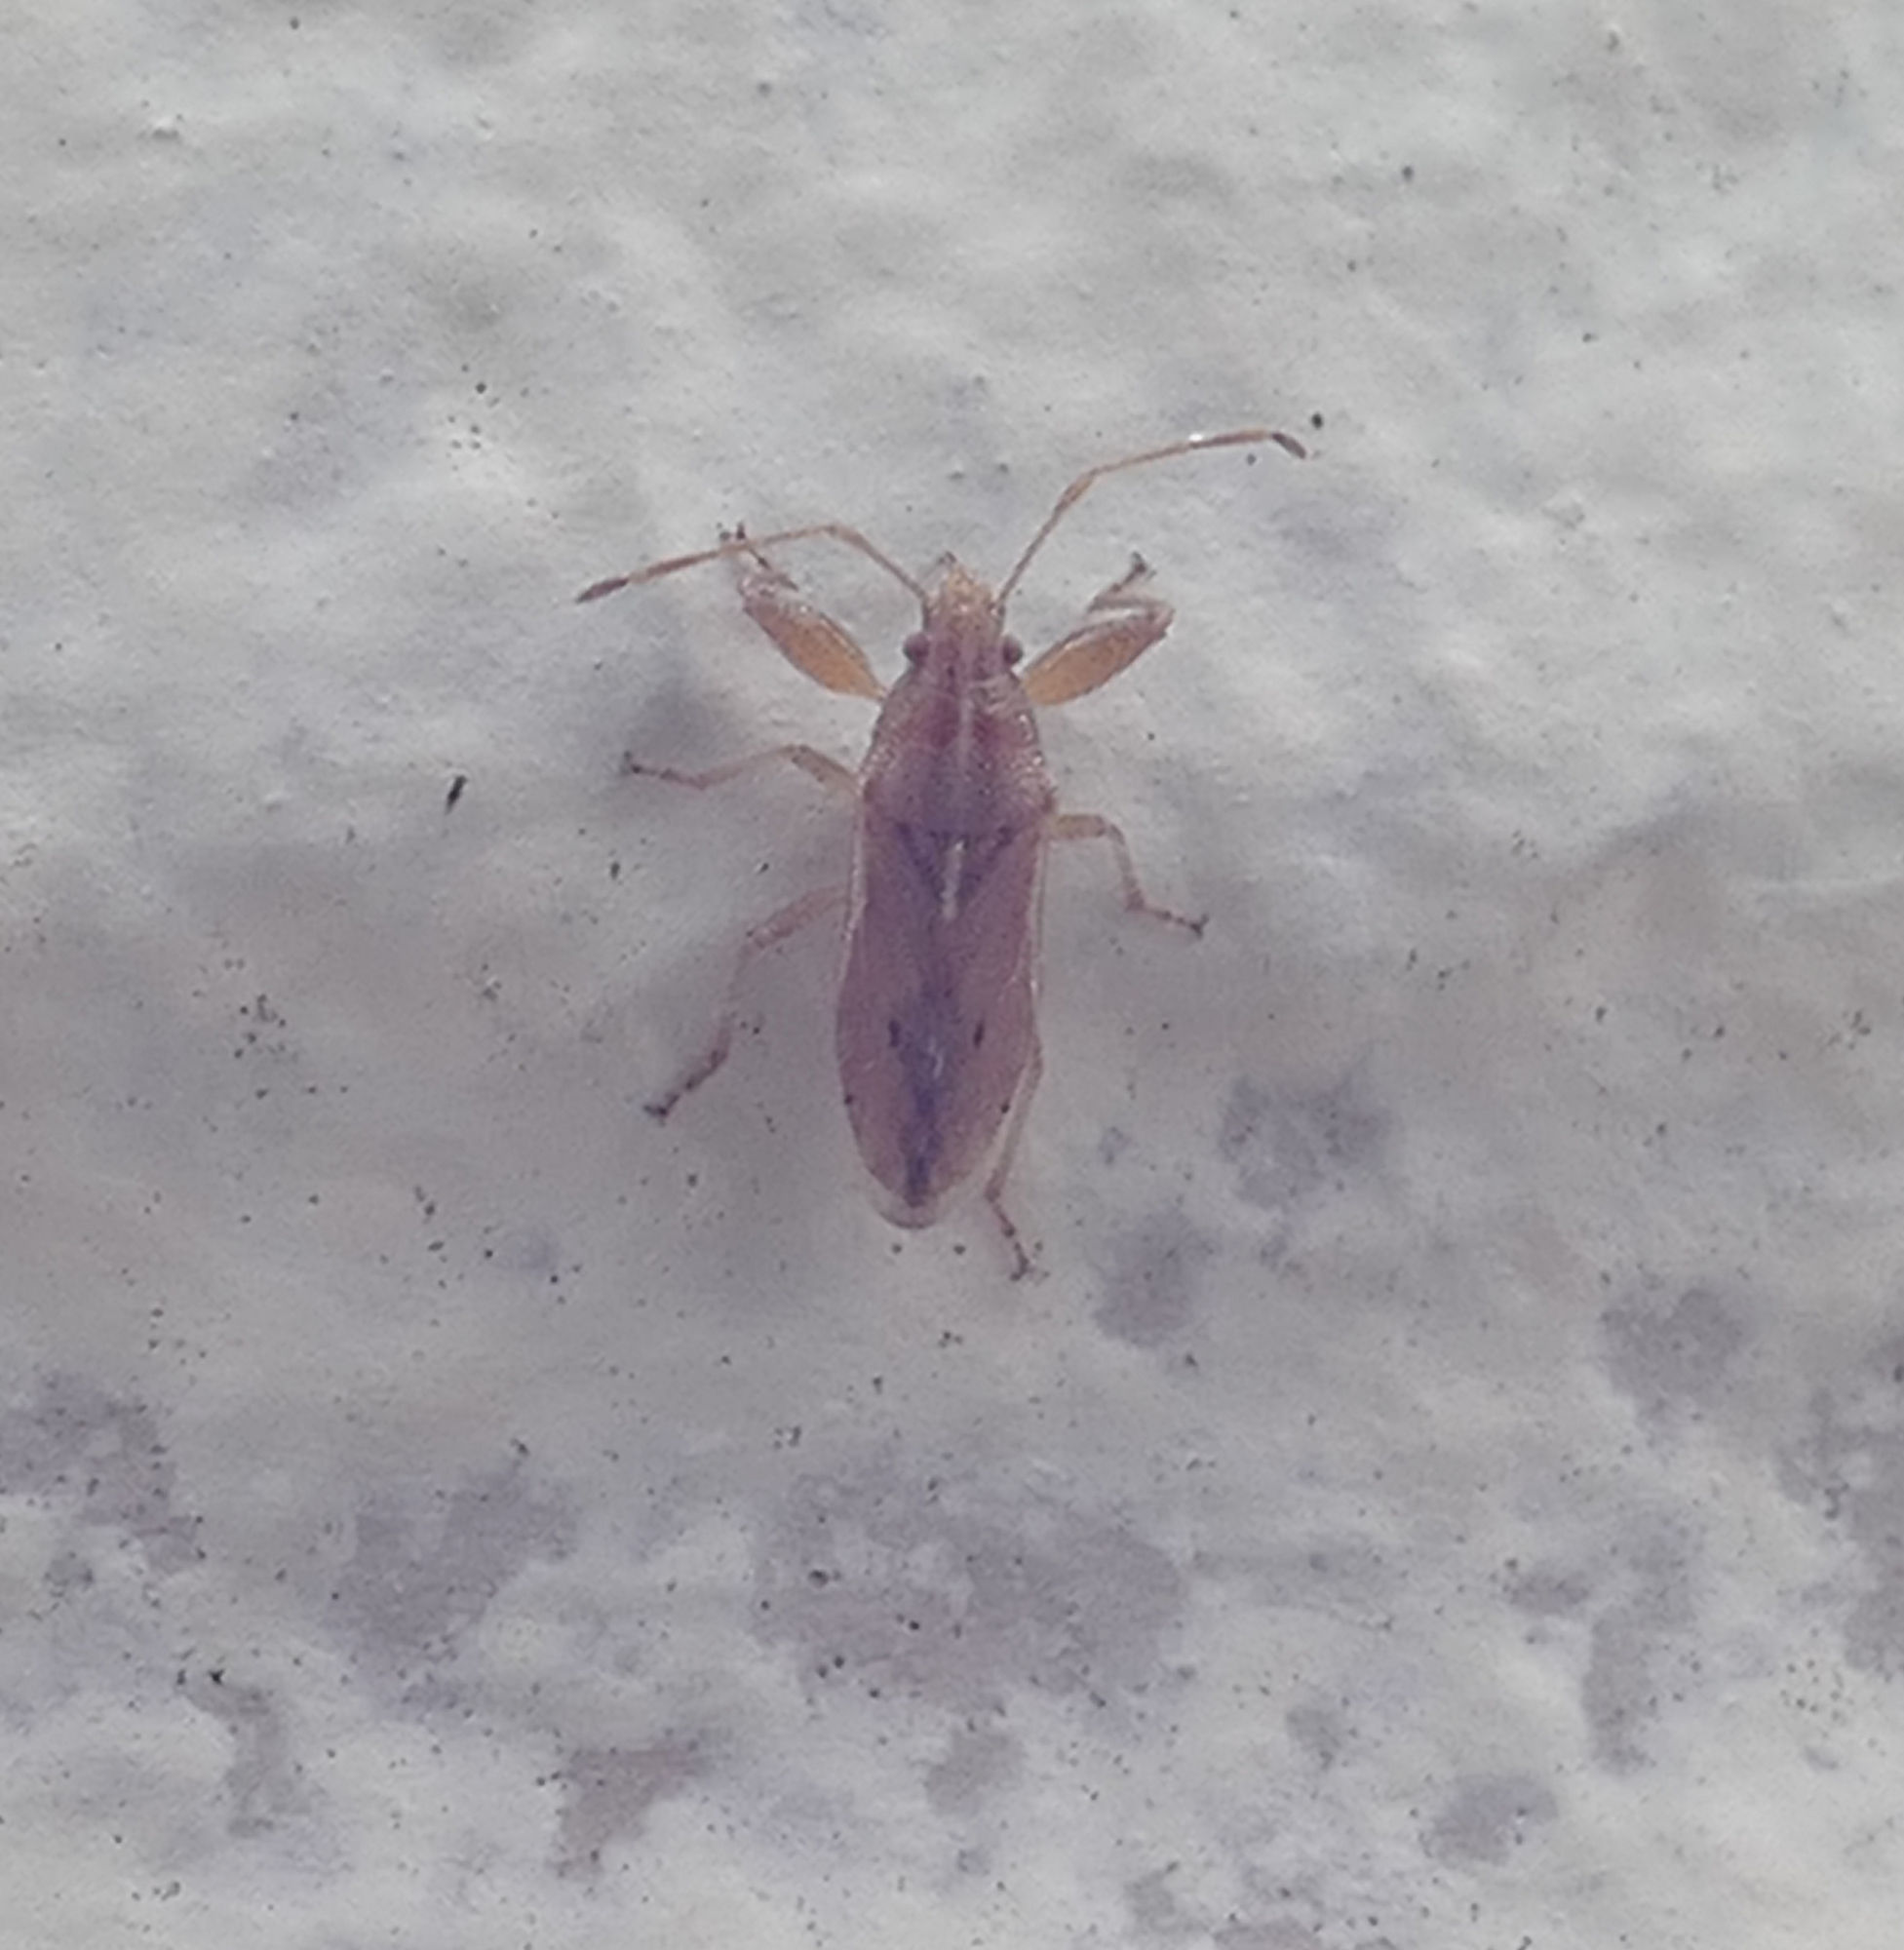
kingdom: Animalia
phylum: Arthropoda
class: Insecta
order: Hemiptera
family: Pachygronthidae
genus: Pachygrontha
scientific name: Pachygrontha compacta
